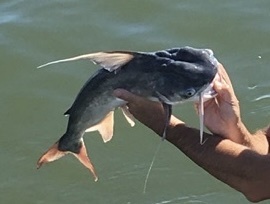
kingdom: Animalia
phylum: Chordata
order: Siluriformes
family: Ariidae
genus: Bagre
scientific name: Bagre marinus
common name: Gafftopsail sea catfish
